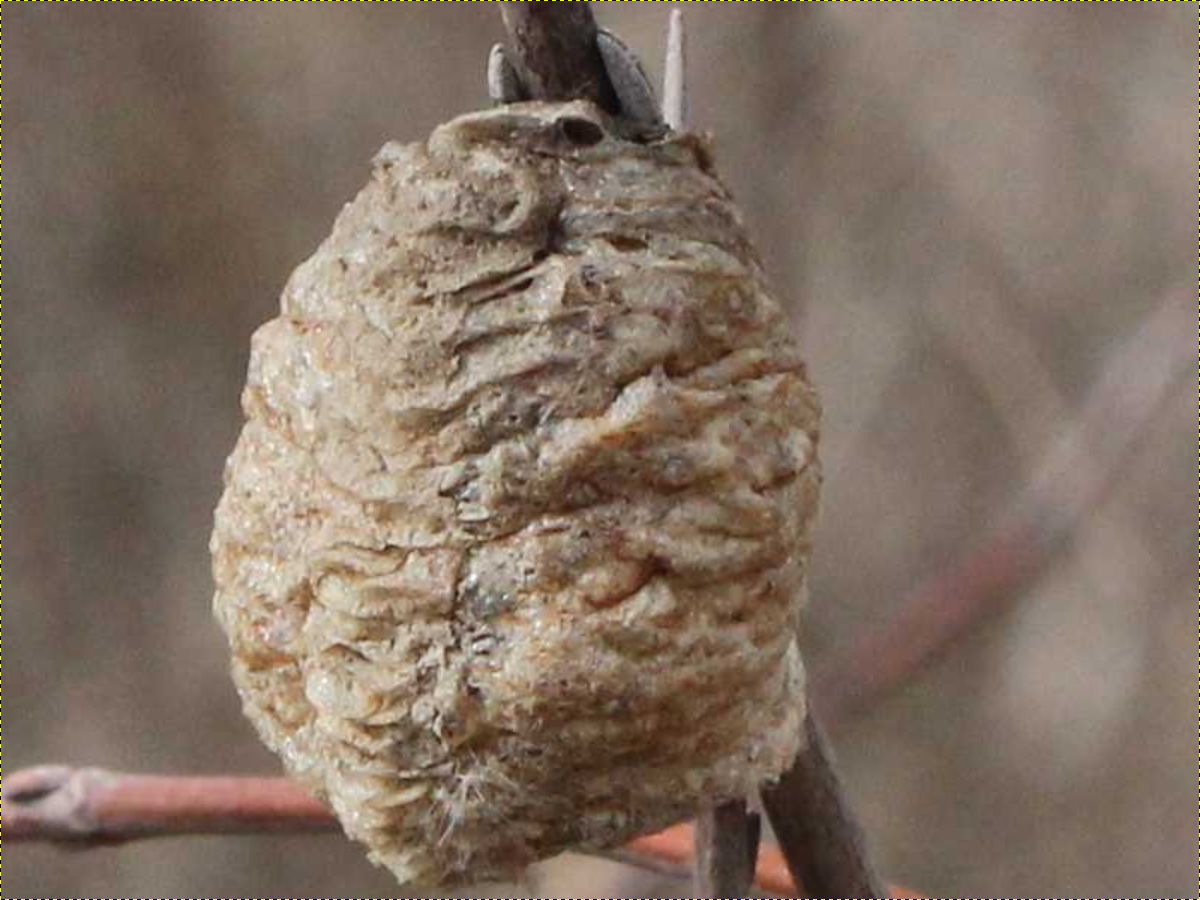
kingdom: Animalia
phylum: Arthropoda
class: Insecta
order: Mantodea
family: Mantidae
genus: Tenodera
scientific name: Tenodera sinensis
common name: Chinese mantis
